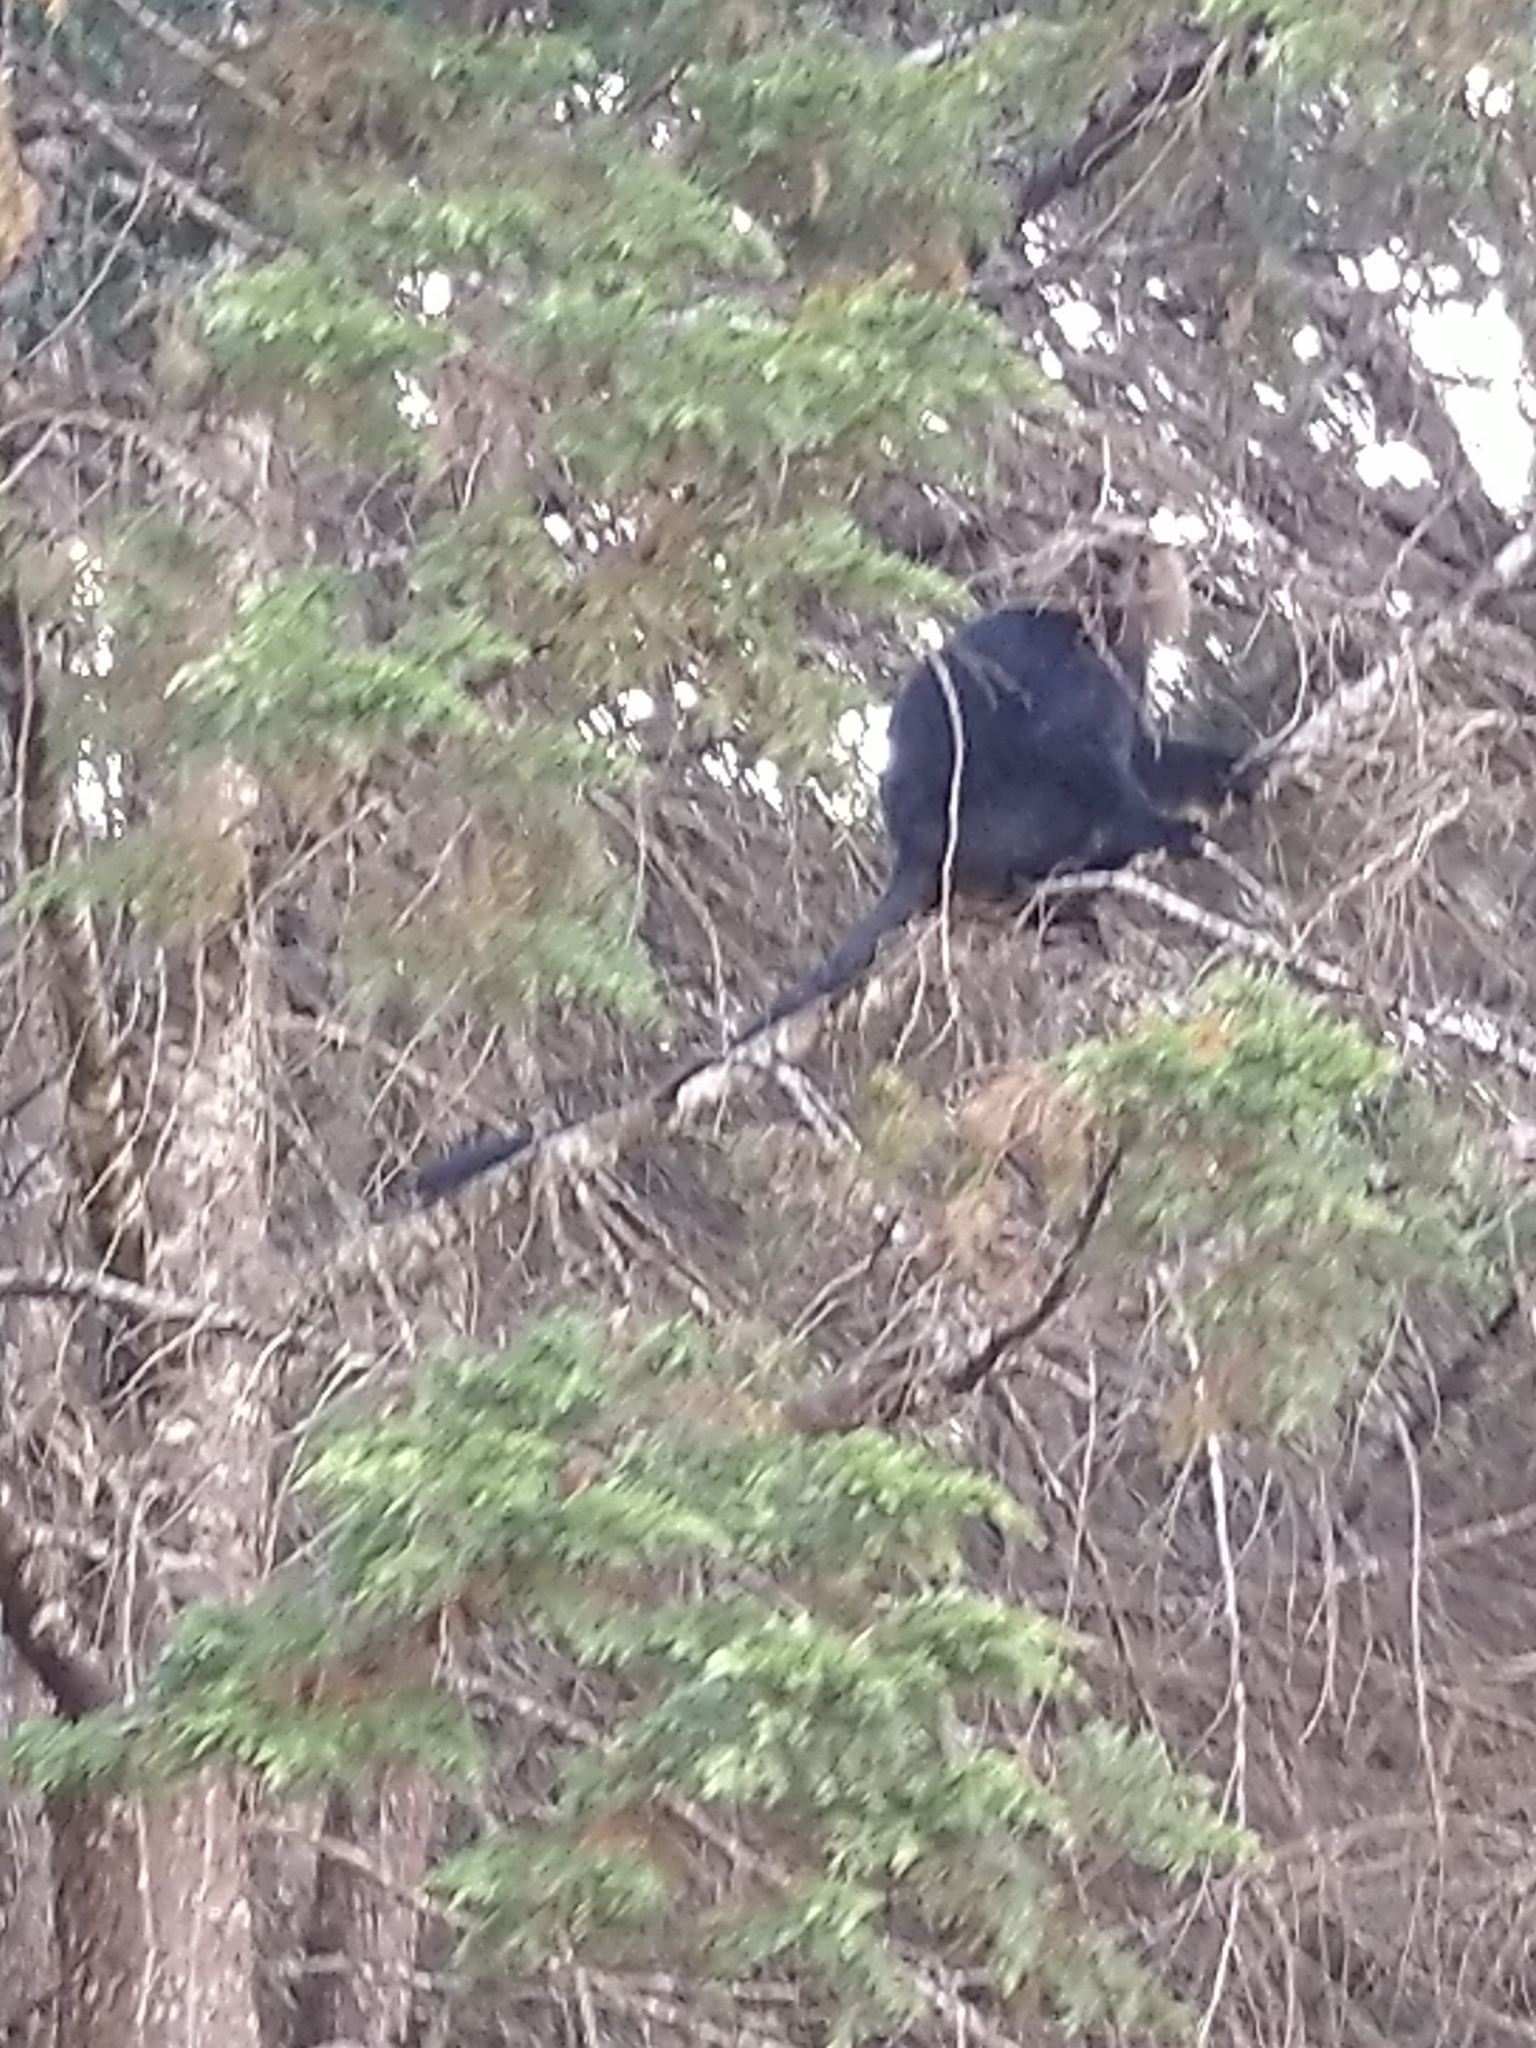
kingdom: Animalia
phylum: Chordata
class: Mammalia
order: Primates
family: Cercopithecidae
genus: Semnopithecus
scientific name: Semnopithecus johnii
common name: Nilgiri langur
